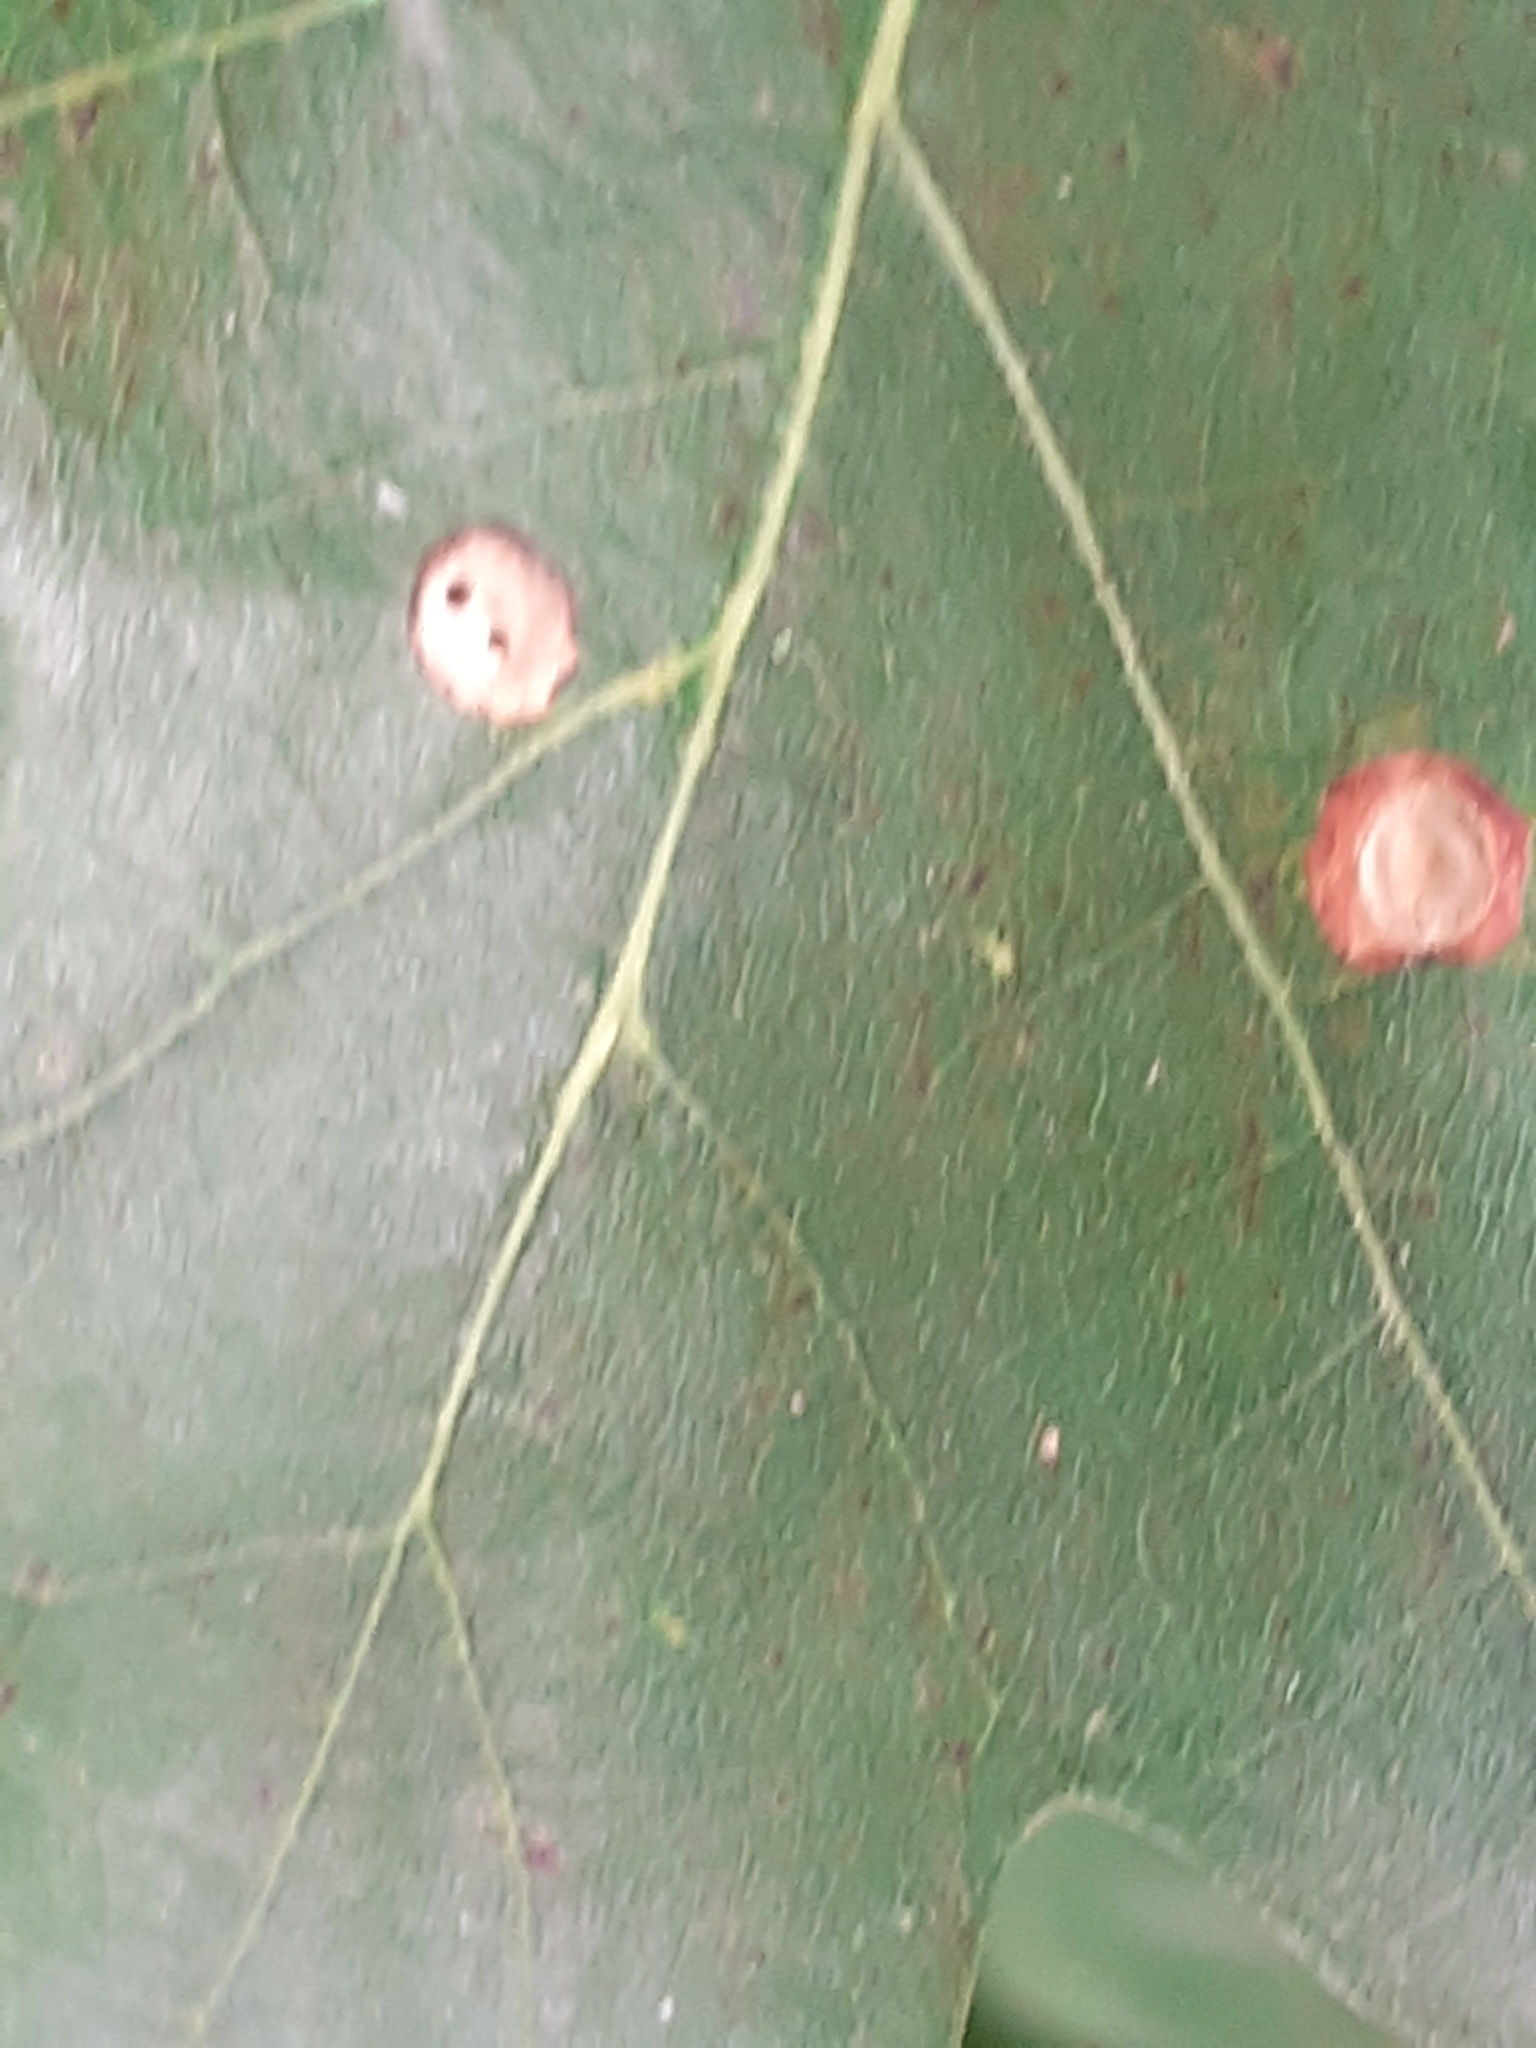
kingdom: Animalia
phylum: Arthropoda
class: Insecta
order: Hymenoptera
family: Cynipidae
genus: Neuroterus
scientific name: Neuroterus numismalis
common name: Silk-button spangle gall
